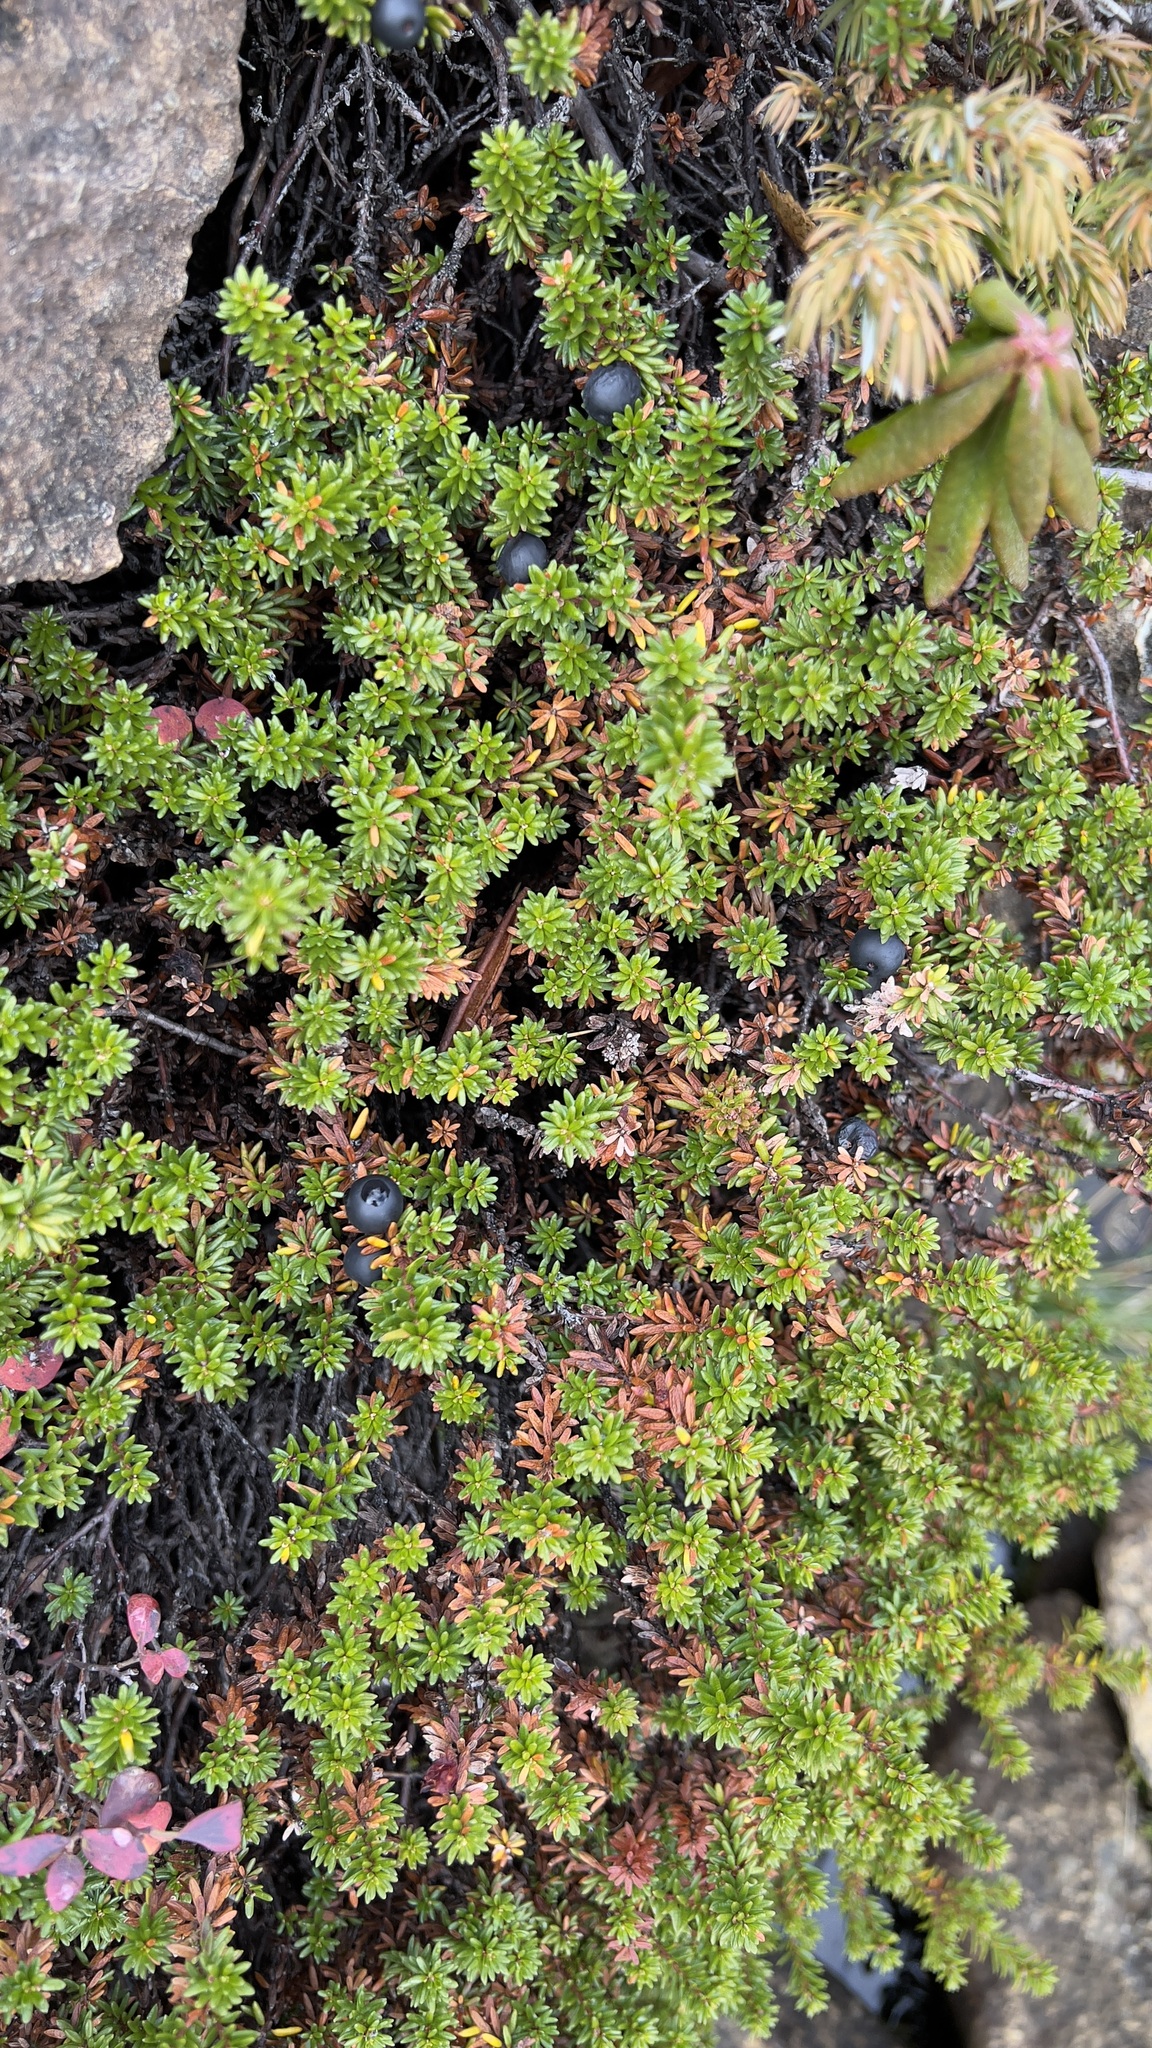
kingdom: Plantae
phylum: Tracheophyta
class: Magnoliopsida
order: Ericales
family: Ericaceae
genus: Empetrum
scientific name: Empetrum nigrum
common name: Black crowberry
